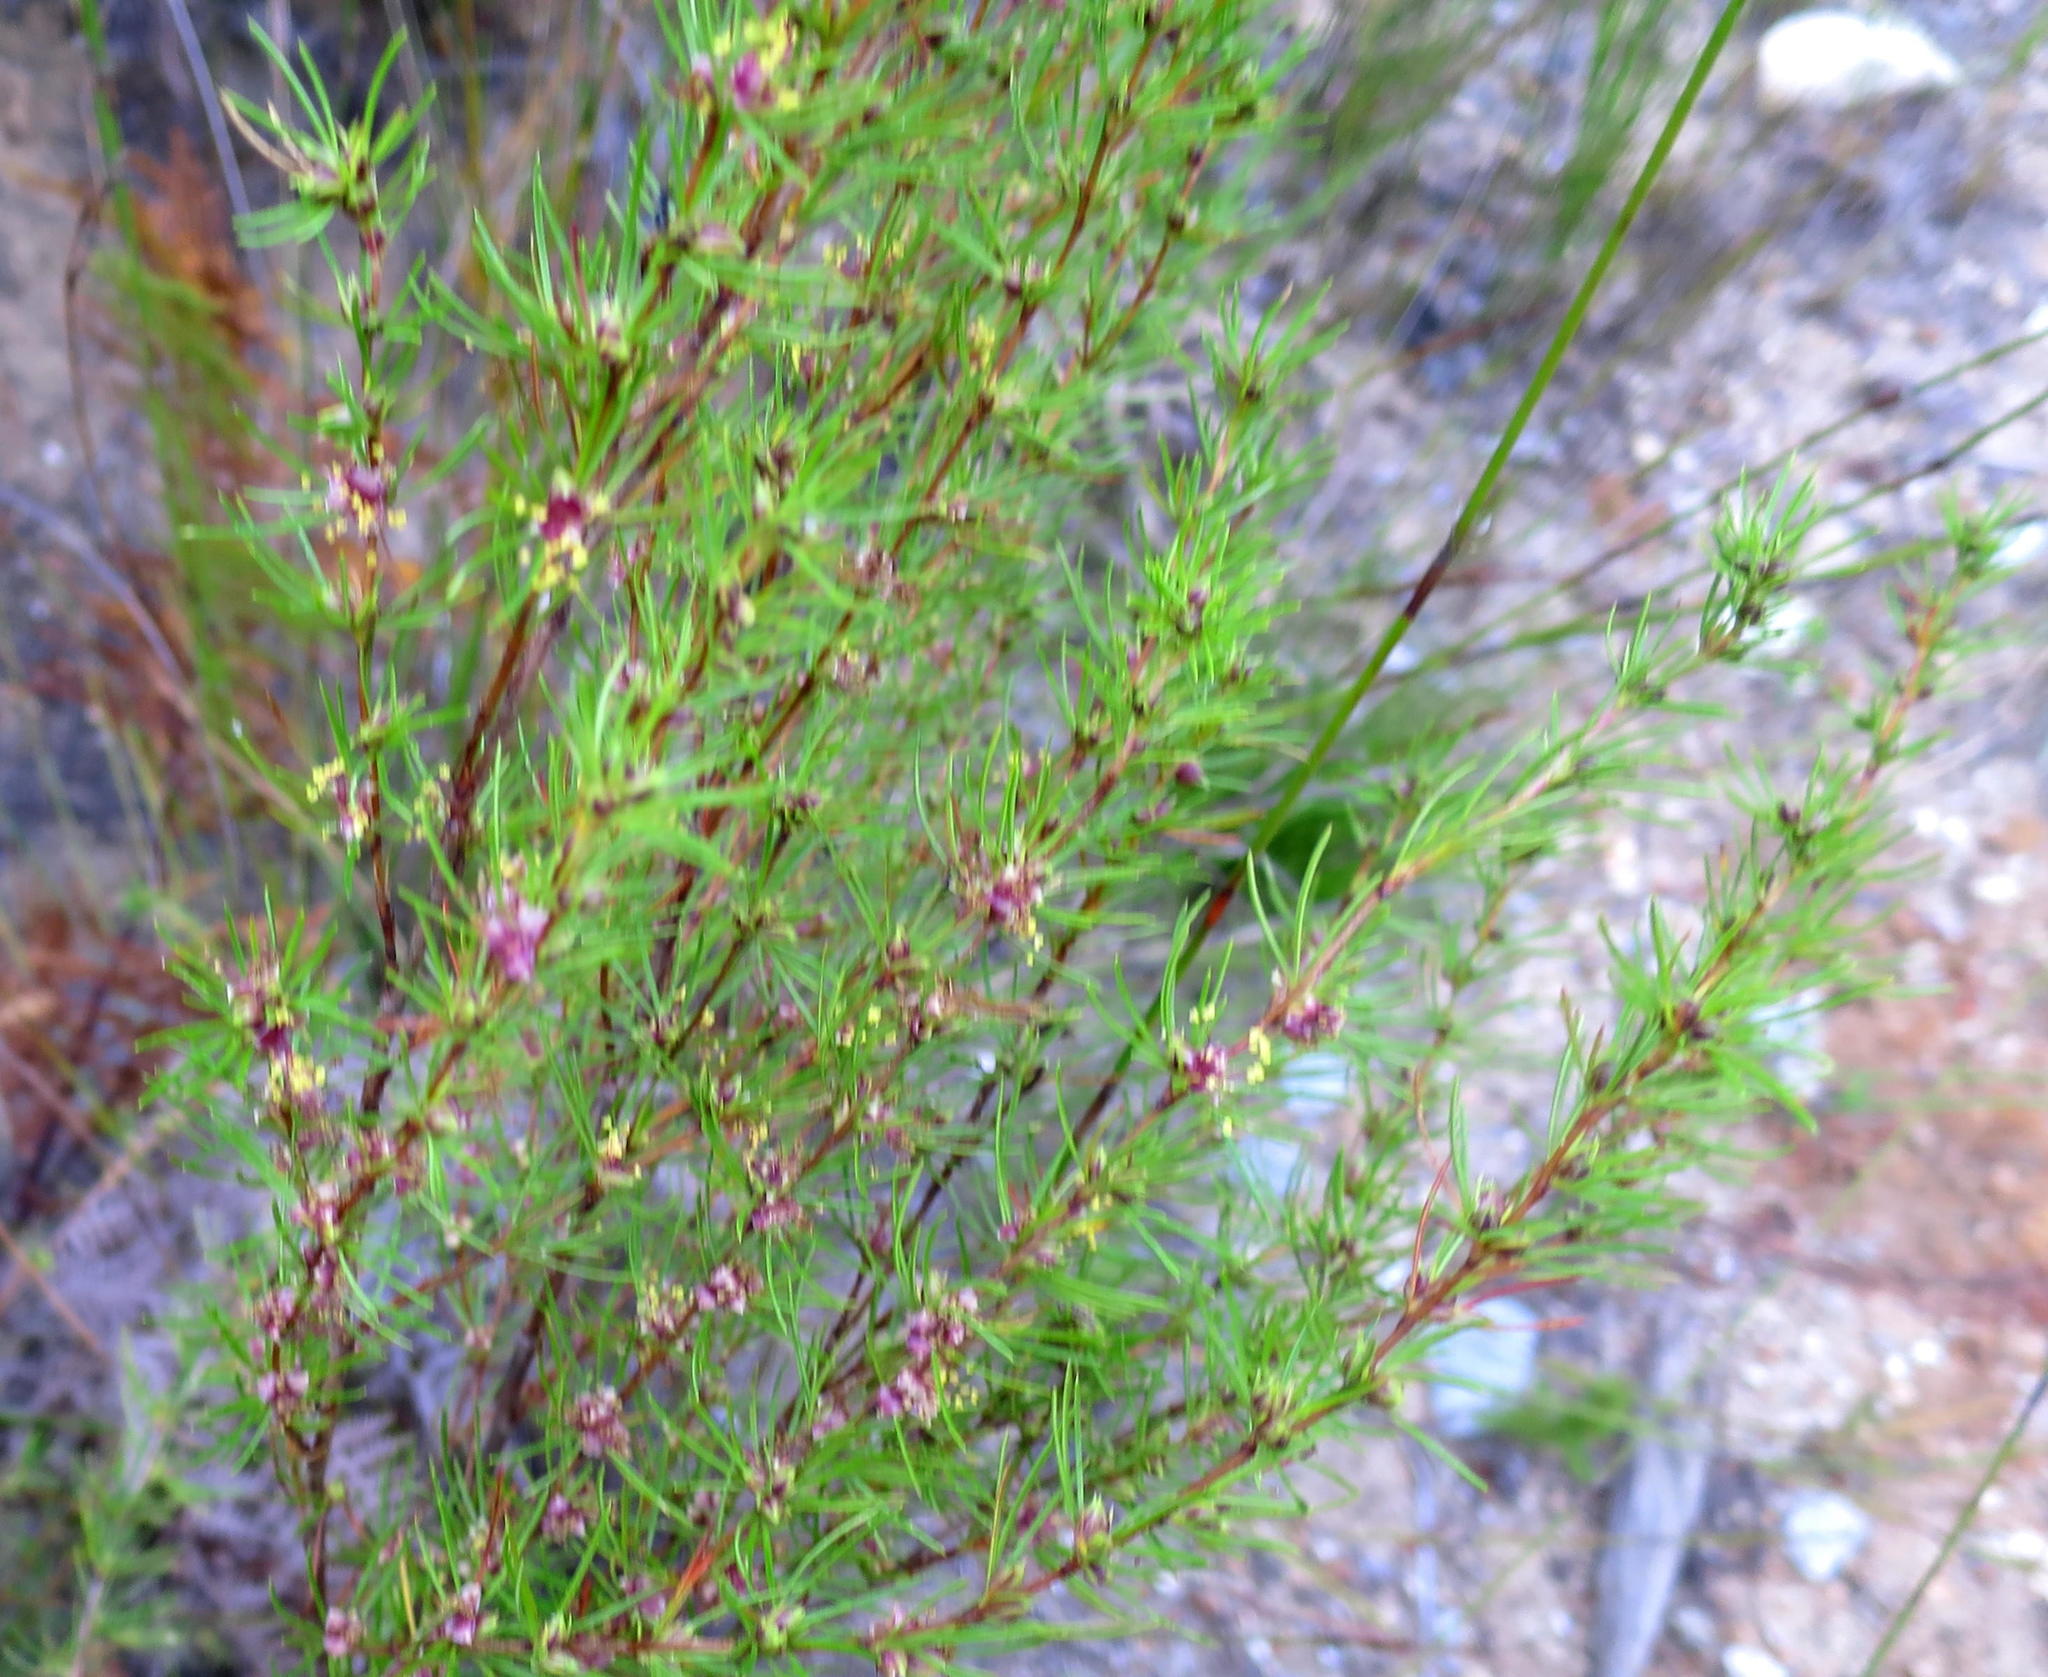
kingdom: Plantae
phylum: Tracheophyta
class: Magnoliopsida
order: Rosales
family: Rosaceae
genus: Cliffortia
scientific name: Cliffortia burchellii
